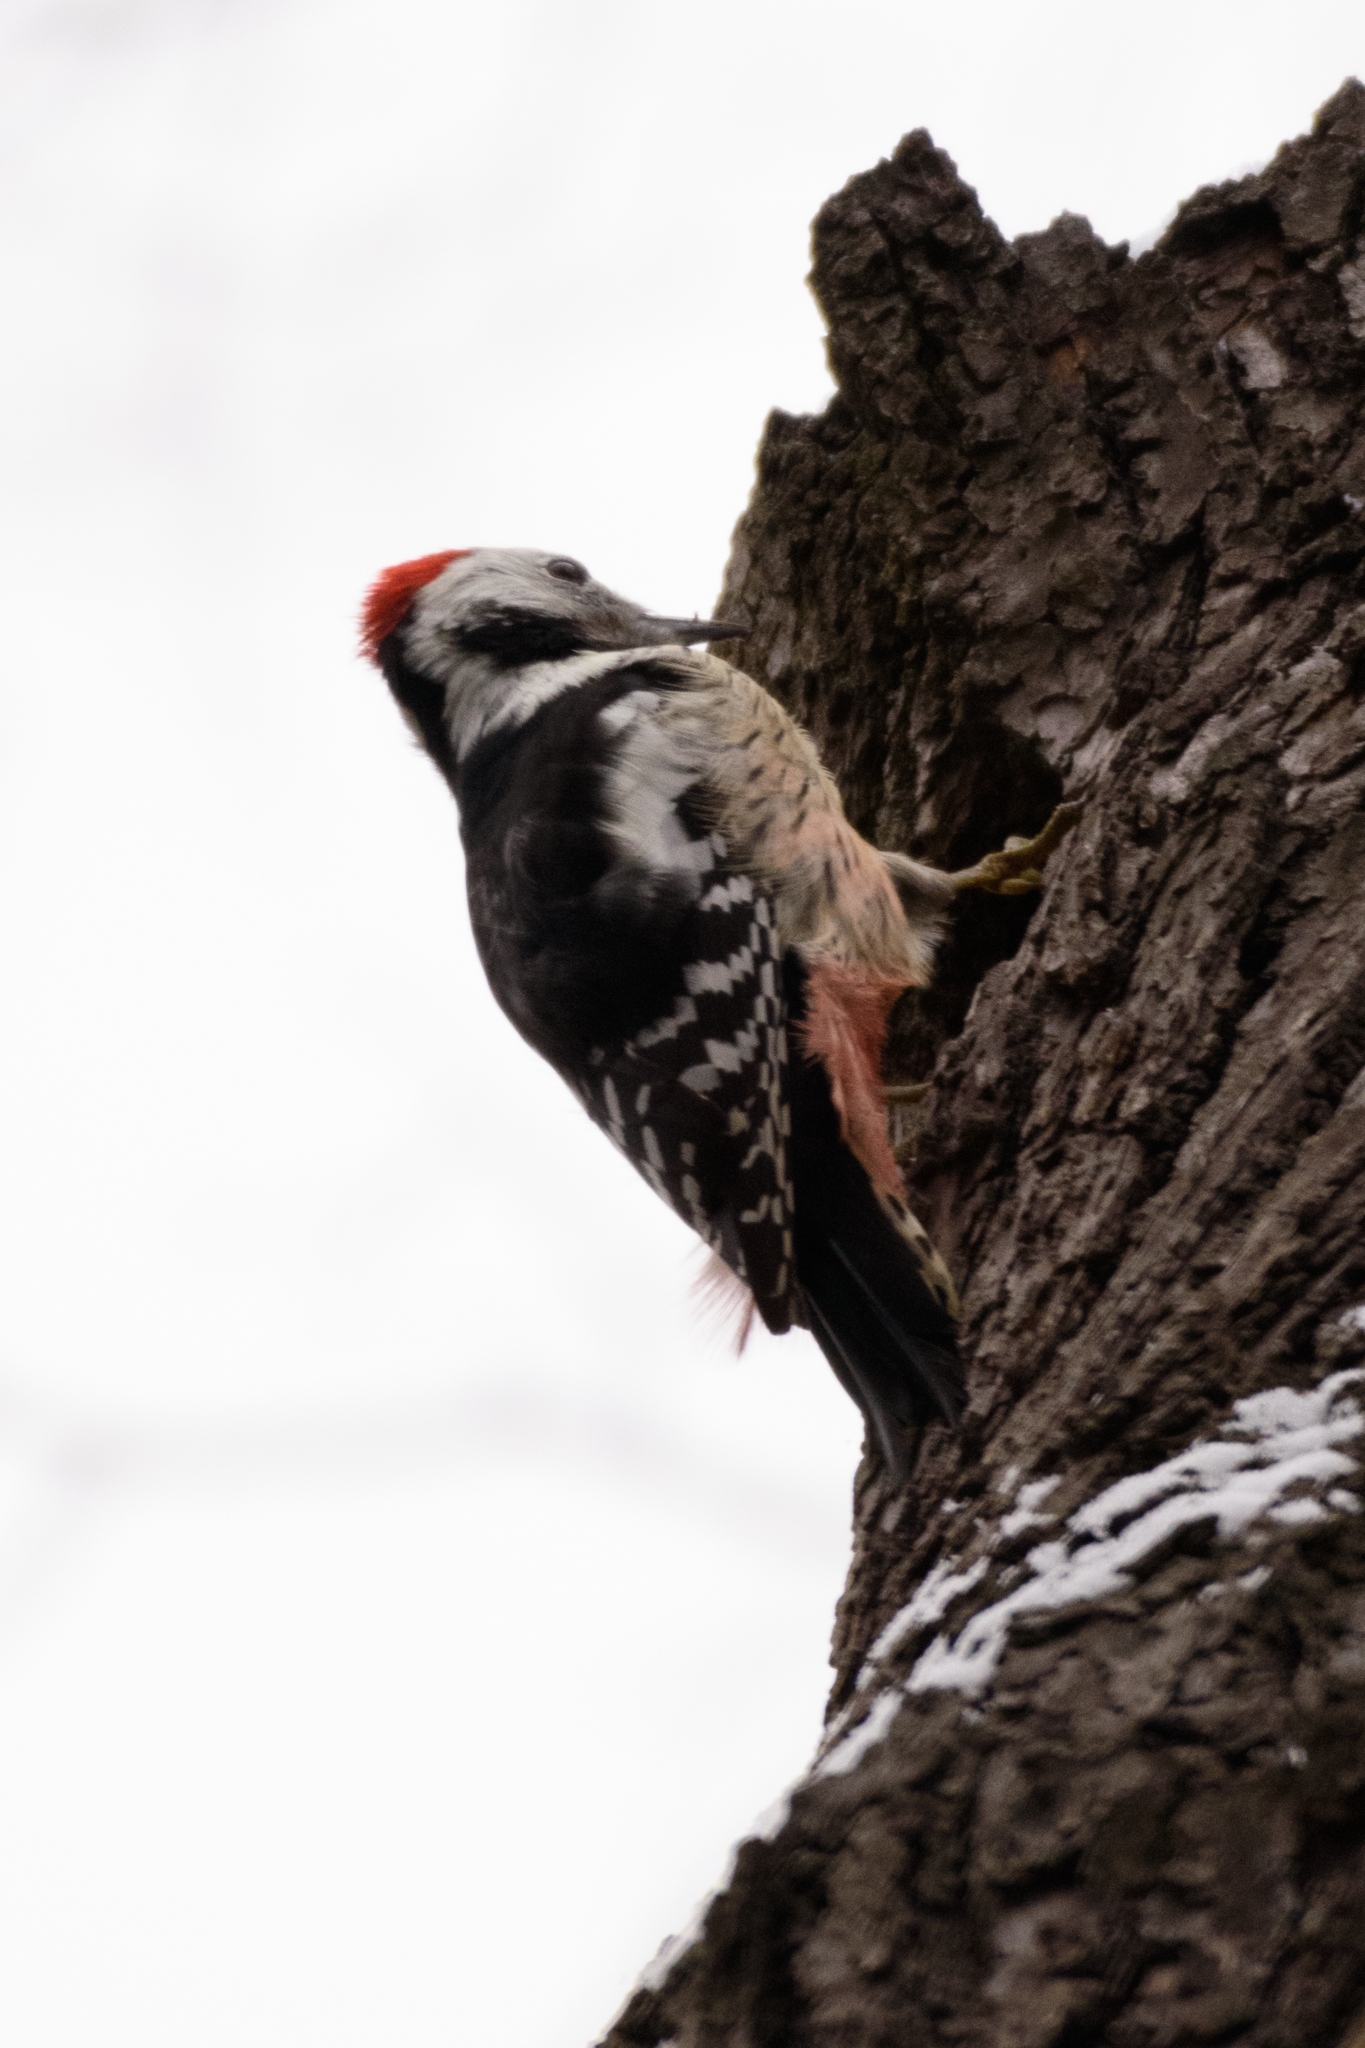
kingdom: Animalia
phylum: Chordata
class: Aves
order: Piciformes
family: Picidae
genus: Dendrocoptes
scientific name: Dendrocoptes medius
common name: Middle spotted woodpecker
